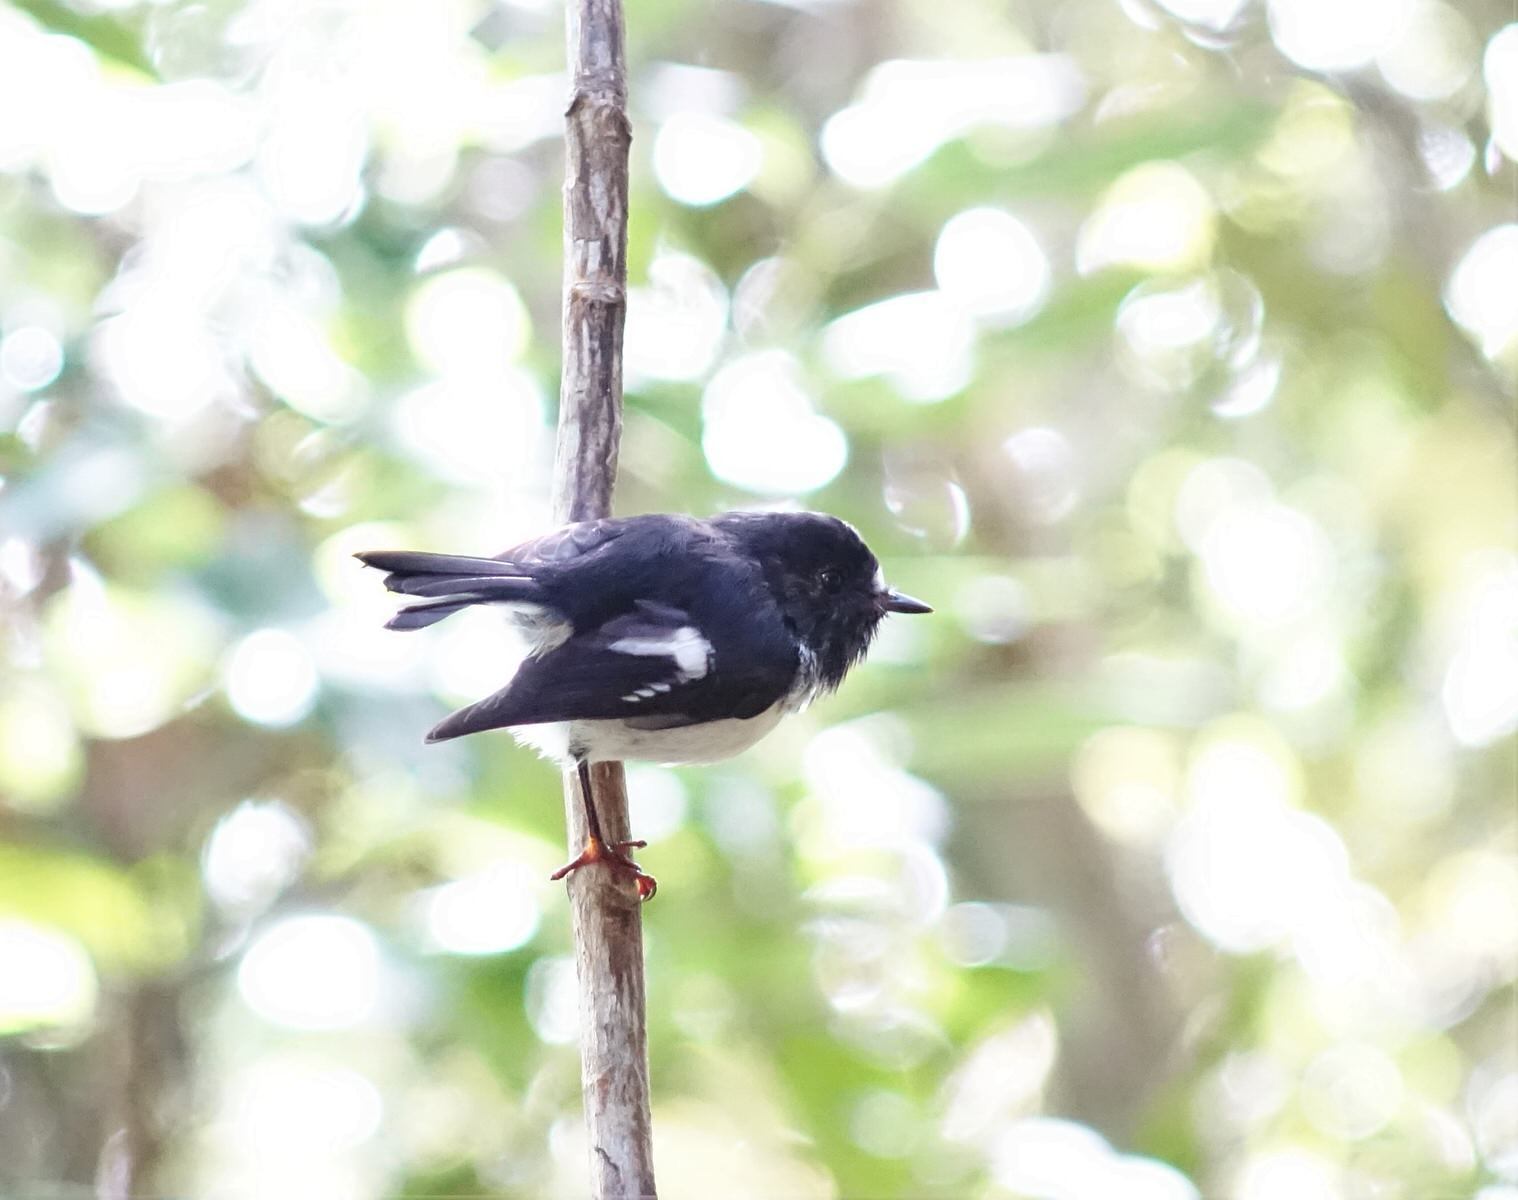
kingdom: Animalia
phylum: Chordata
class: Aves
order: Passeriformes
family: Petroicidae
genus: Petroica
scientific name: Petroica macrocephala
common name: Tomtit
